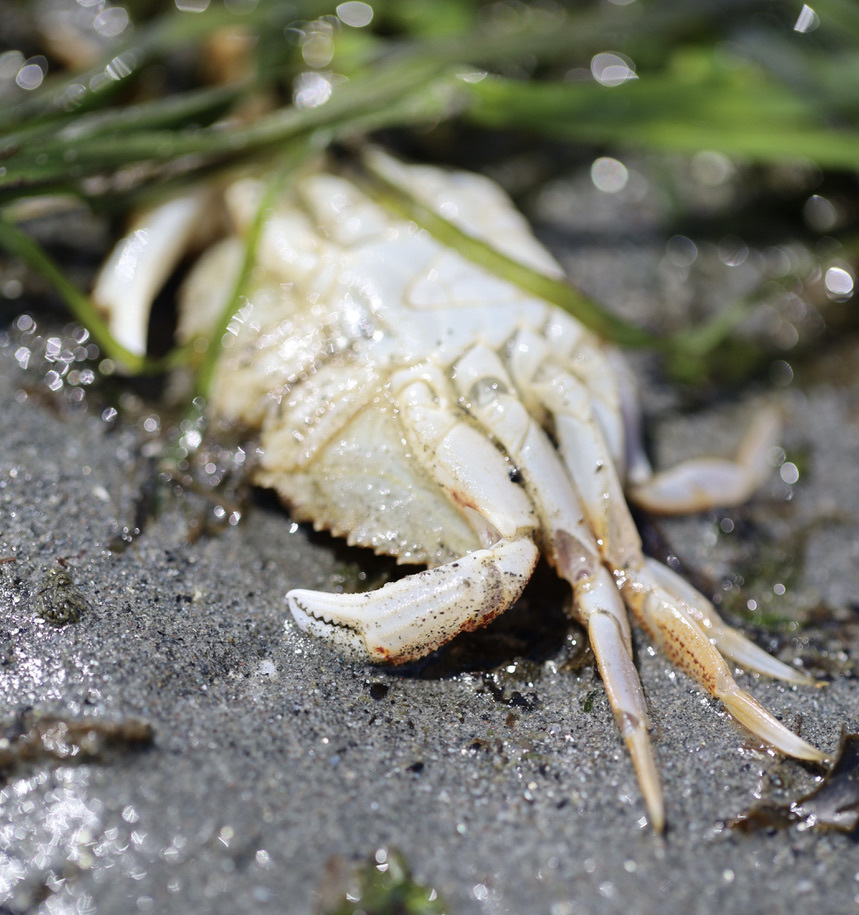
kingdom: Animalia
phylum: Arthropoda
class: Malacostraca
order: Decapoda
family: Cancridae
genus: Metacarcinus
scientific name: Metacarcinus magister
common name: Californian crab
